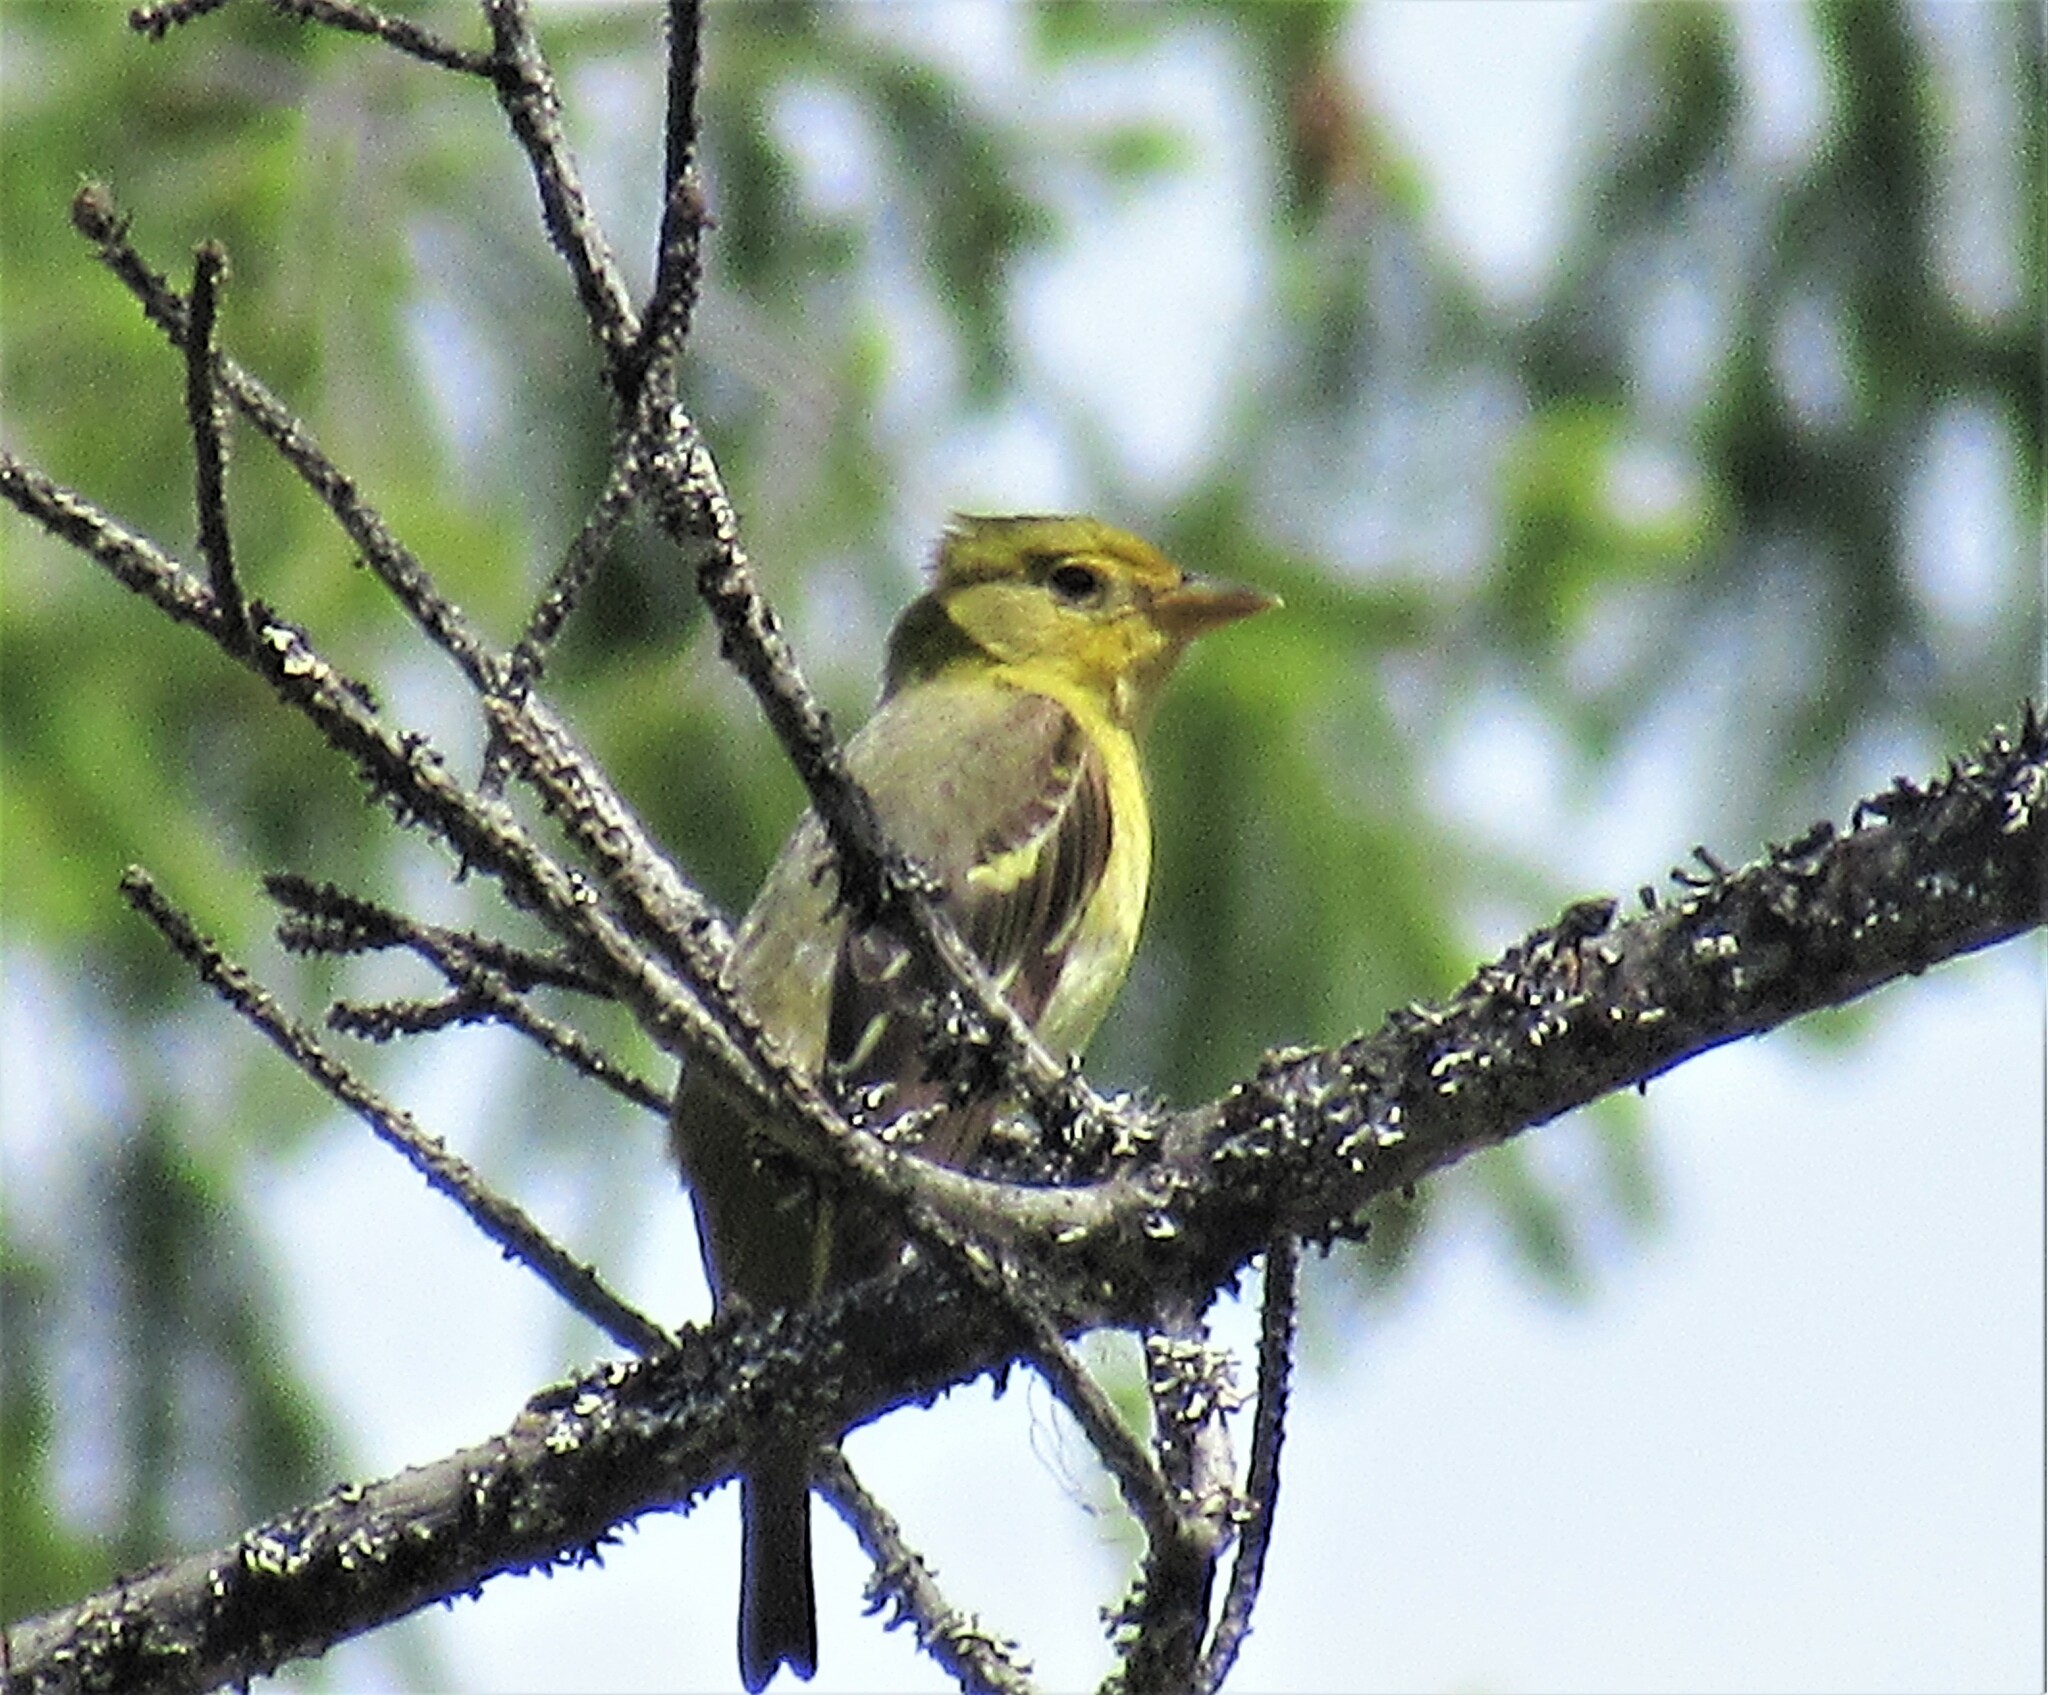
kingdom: Animalia
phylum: Chordata
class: Aves
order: Passeriformes
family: Cardinalidae
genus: Piranga
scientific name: Piranga ludoviciana
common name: Western tanager
